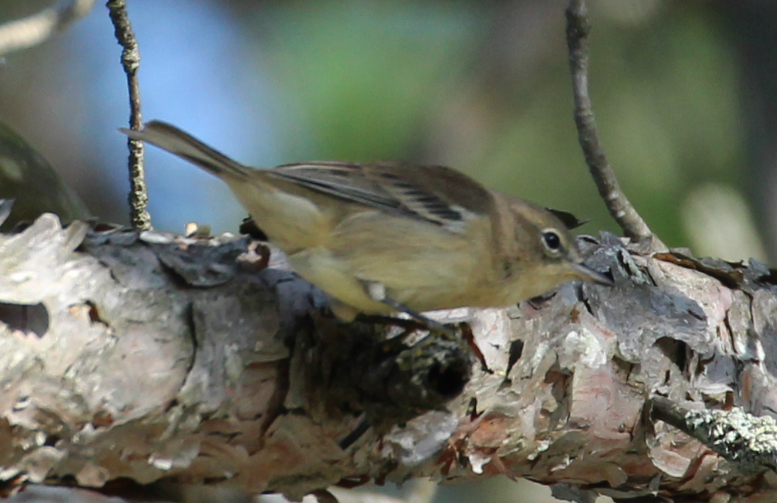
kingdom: Animalia
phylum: Chordata
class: Aves
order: Passeriformes
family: Parulidae
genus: Setophaga
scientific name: Setophaga pinus
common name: Pine warbler
